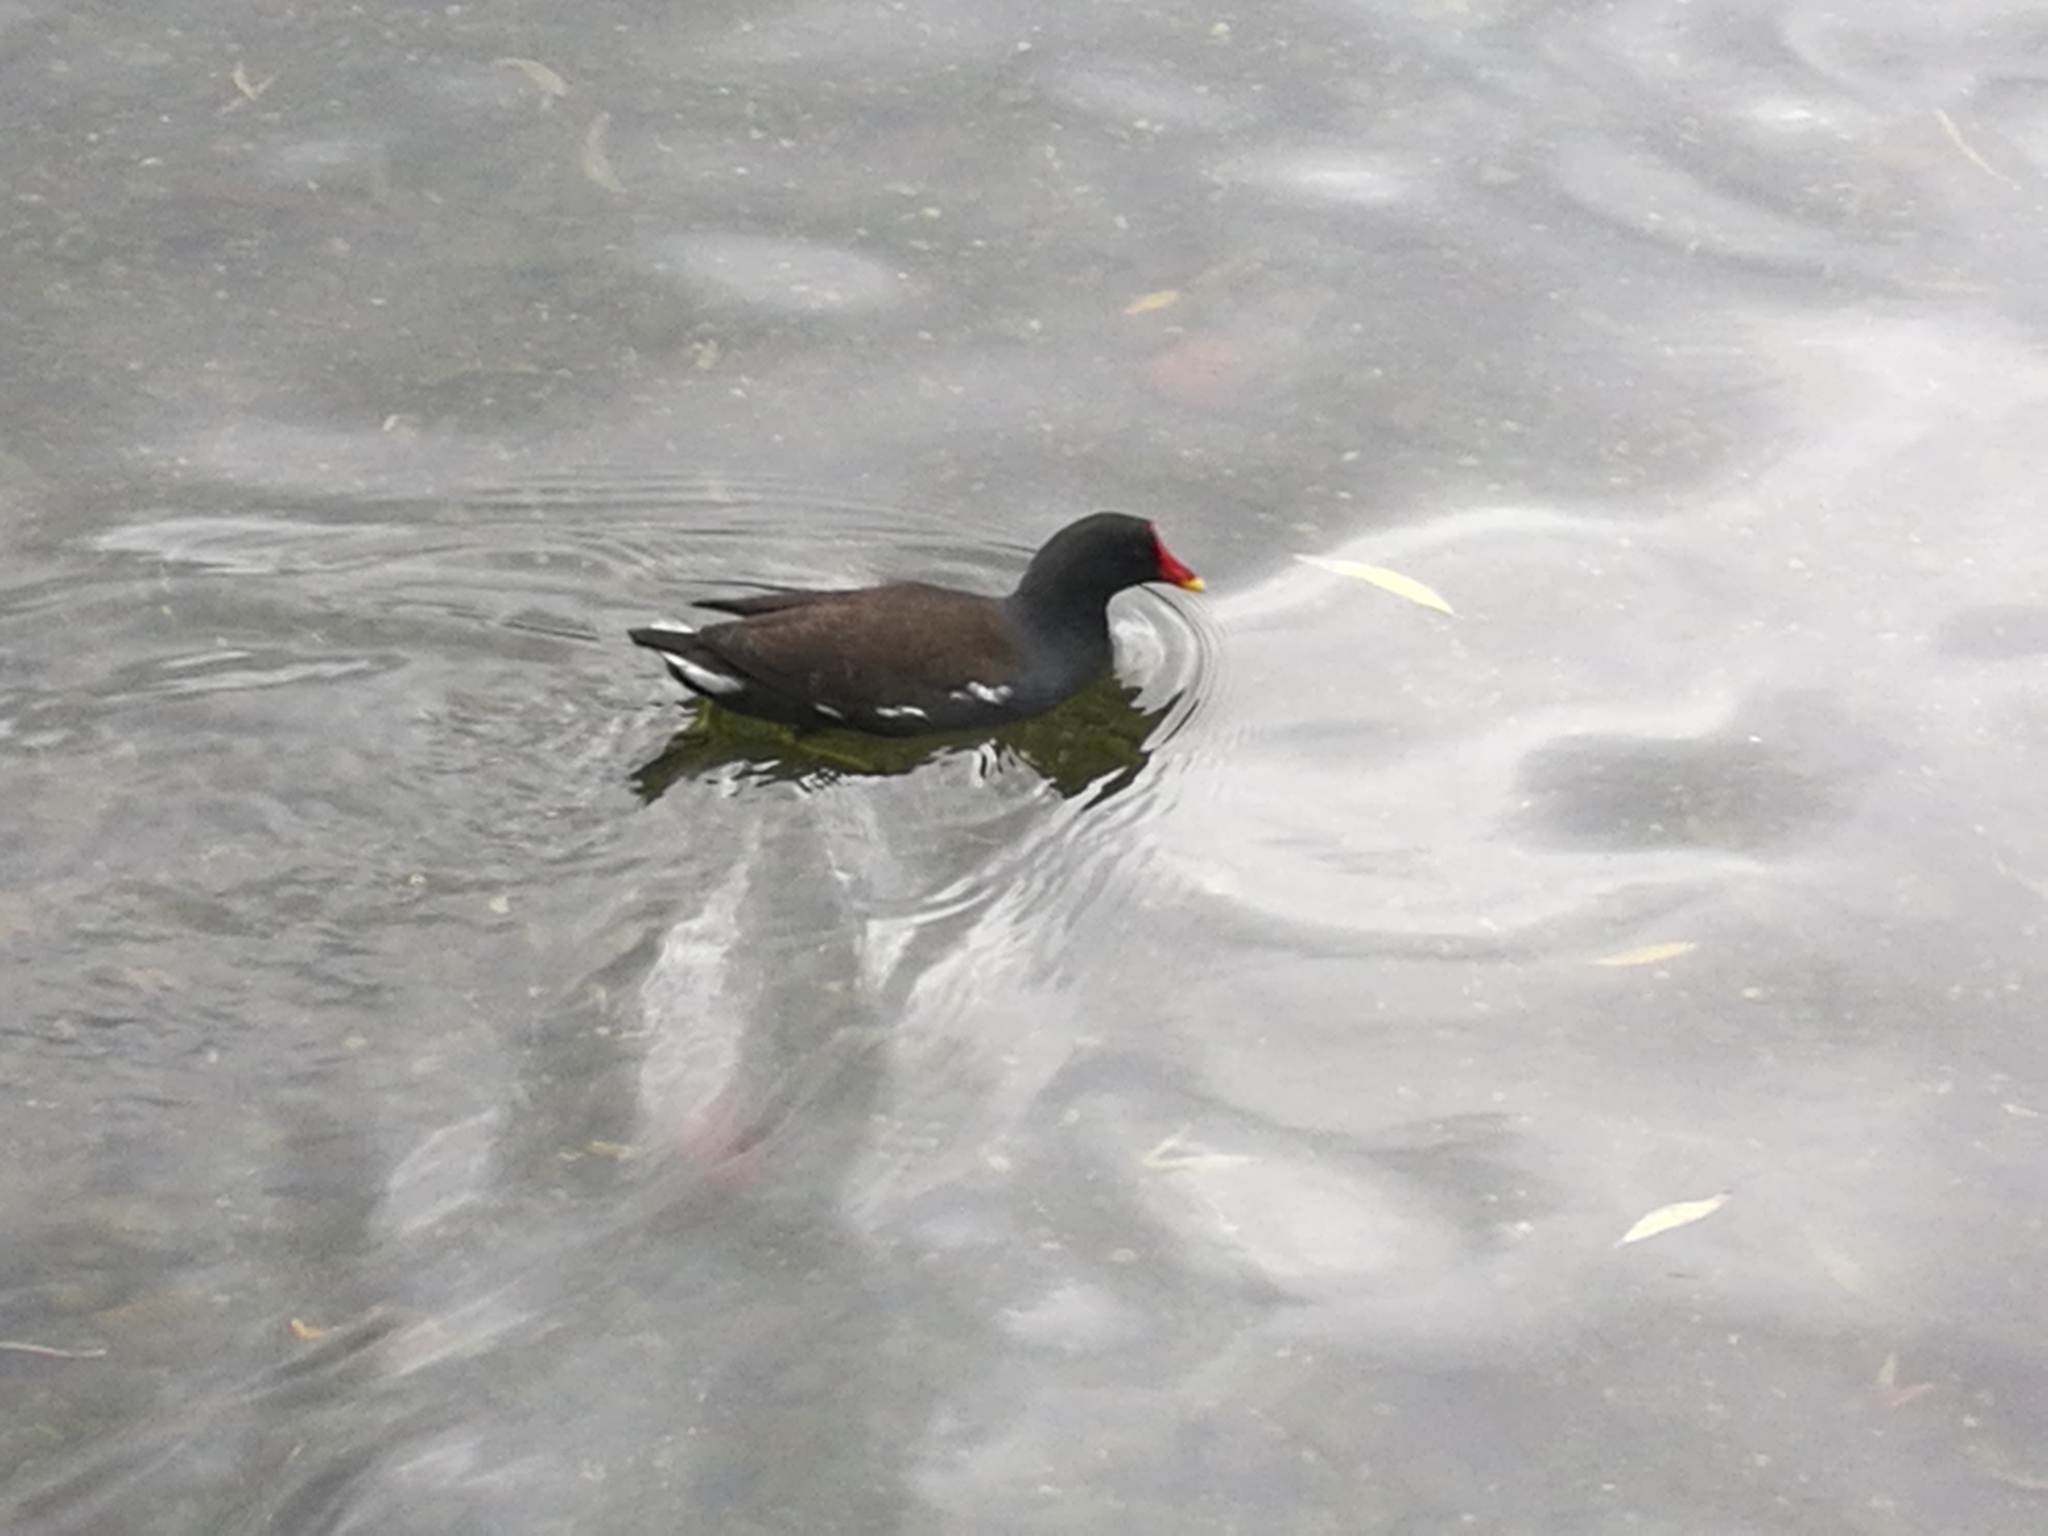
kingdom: Animalia
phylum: Chordata
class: Aves
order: Gruiformes
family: Rallidae
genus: Gallinula
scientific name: Gallinula chloropus
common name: Common moorhen
